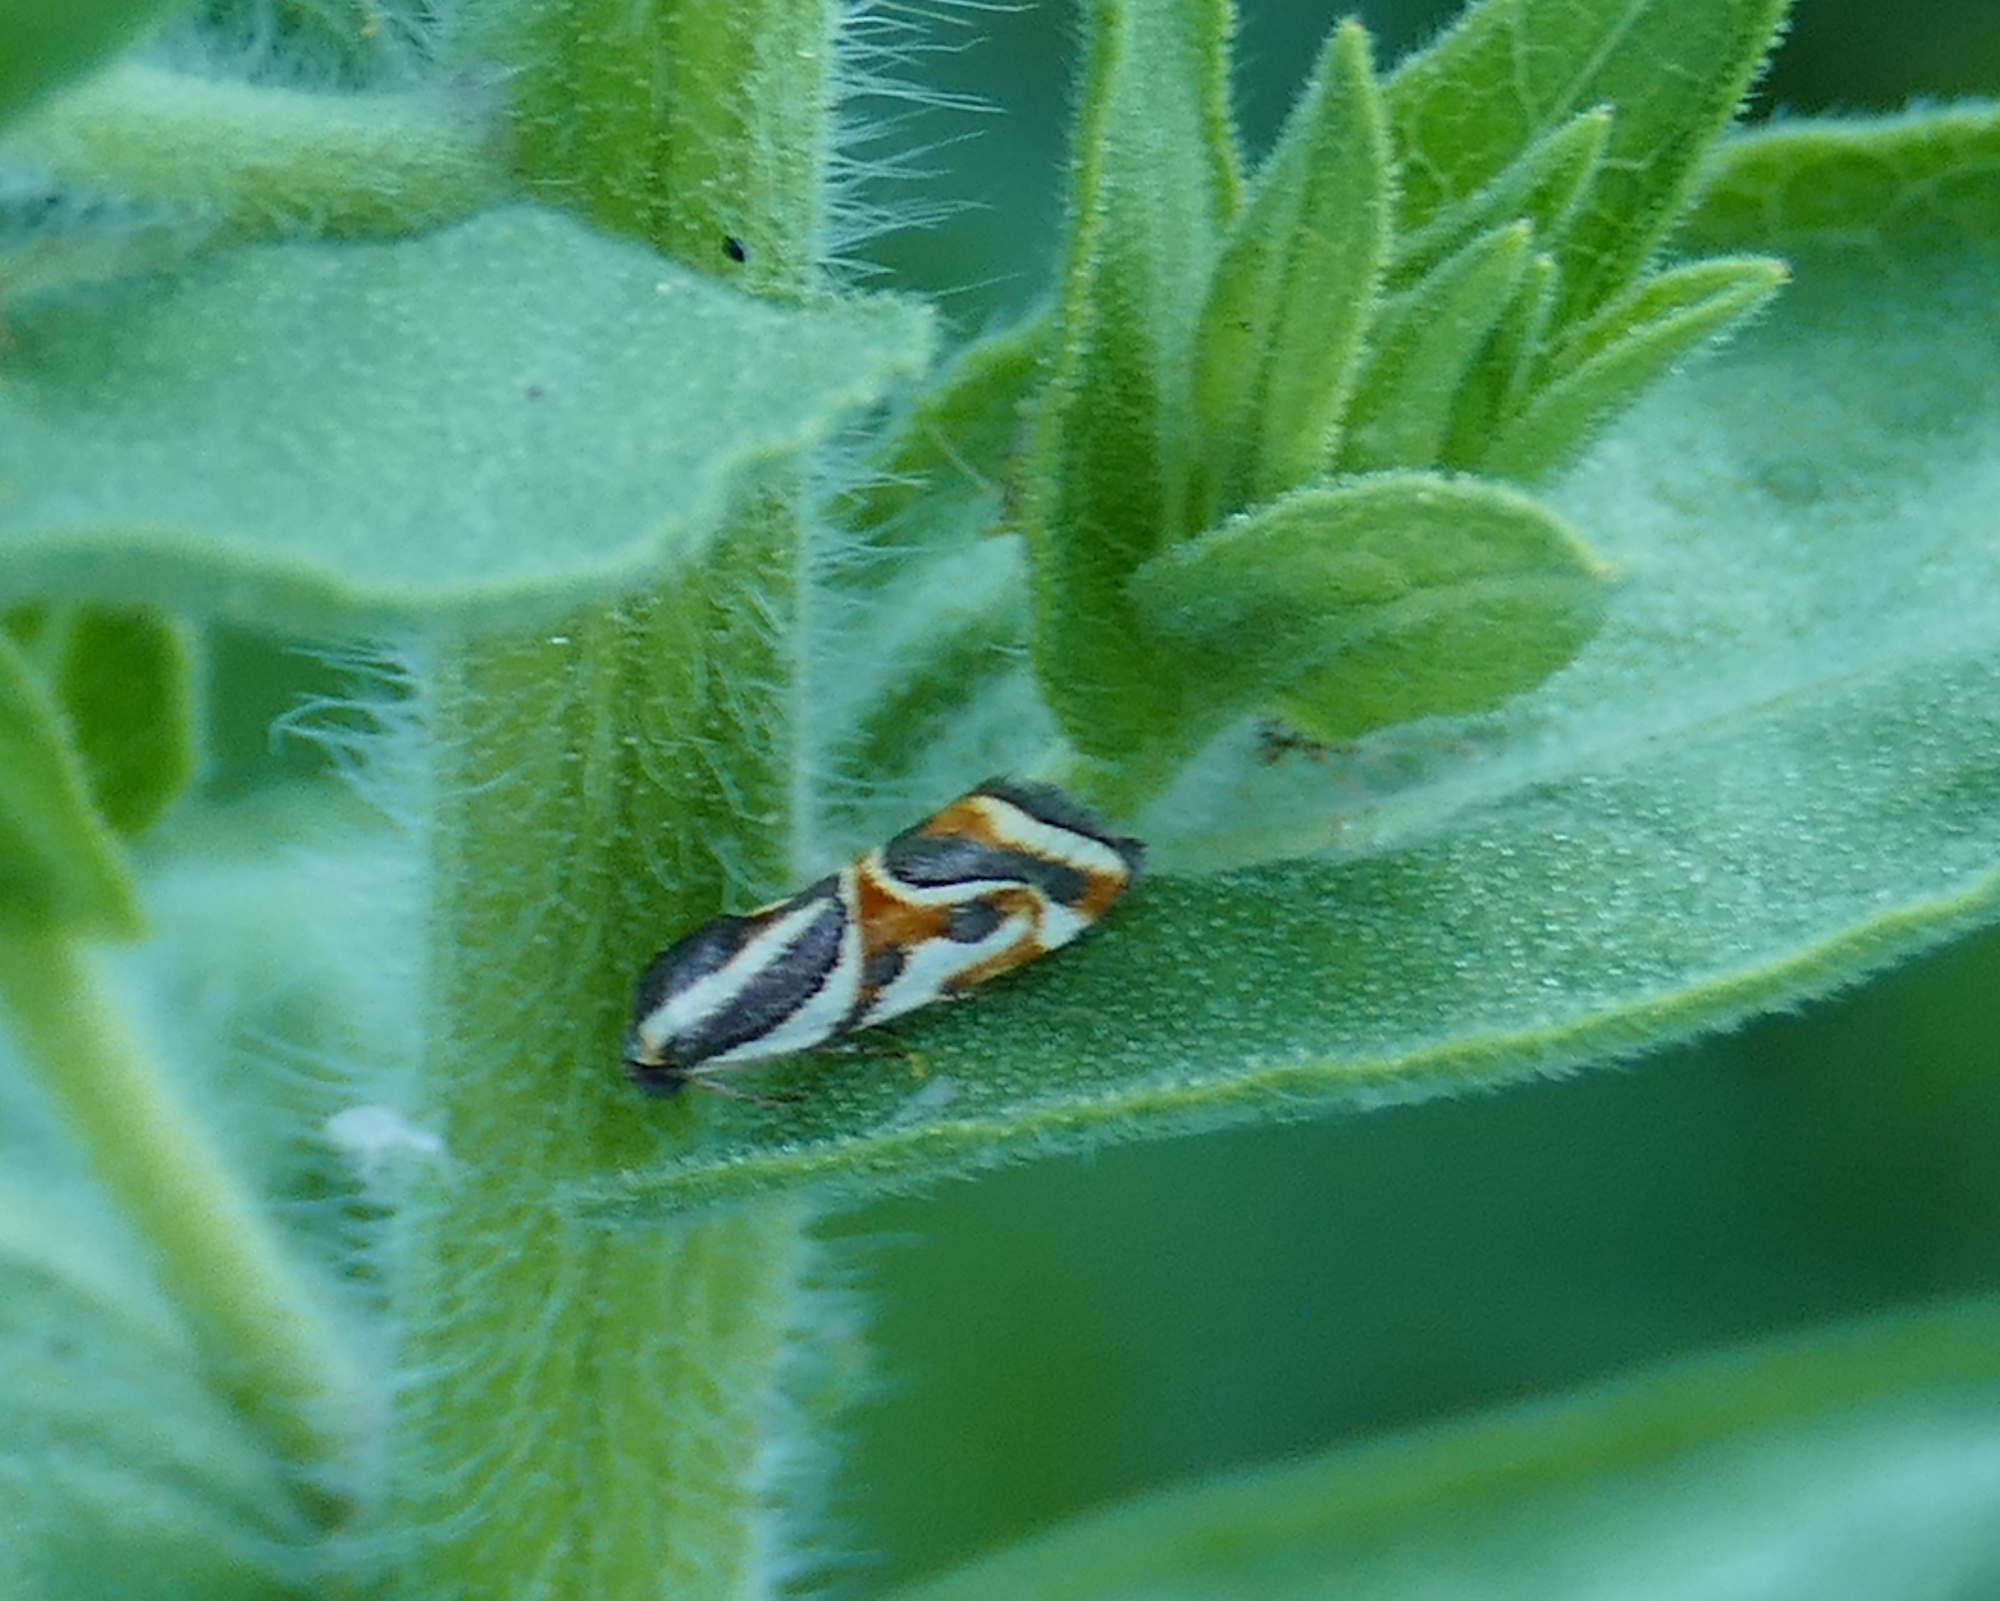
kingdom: Animalia
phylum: Arthropoda
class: Insecta
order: Lepidoptera
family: Noctuidae
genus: Spragueia
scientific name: Spragueia magnifica
